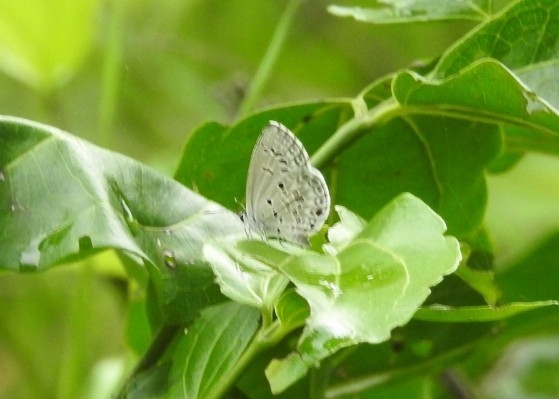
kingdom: Animalia
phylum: Arthropoda
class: Insecta
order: Lepidoptera
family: Lycaenidae
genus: Chilades
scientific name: Chilades laius
